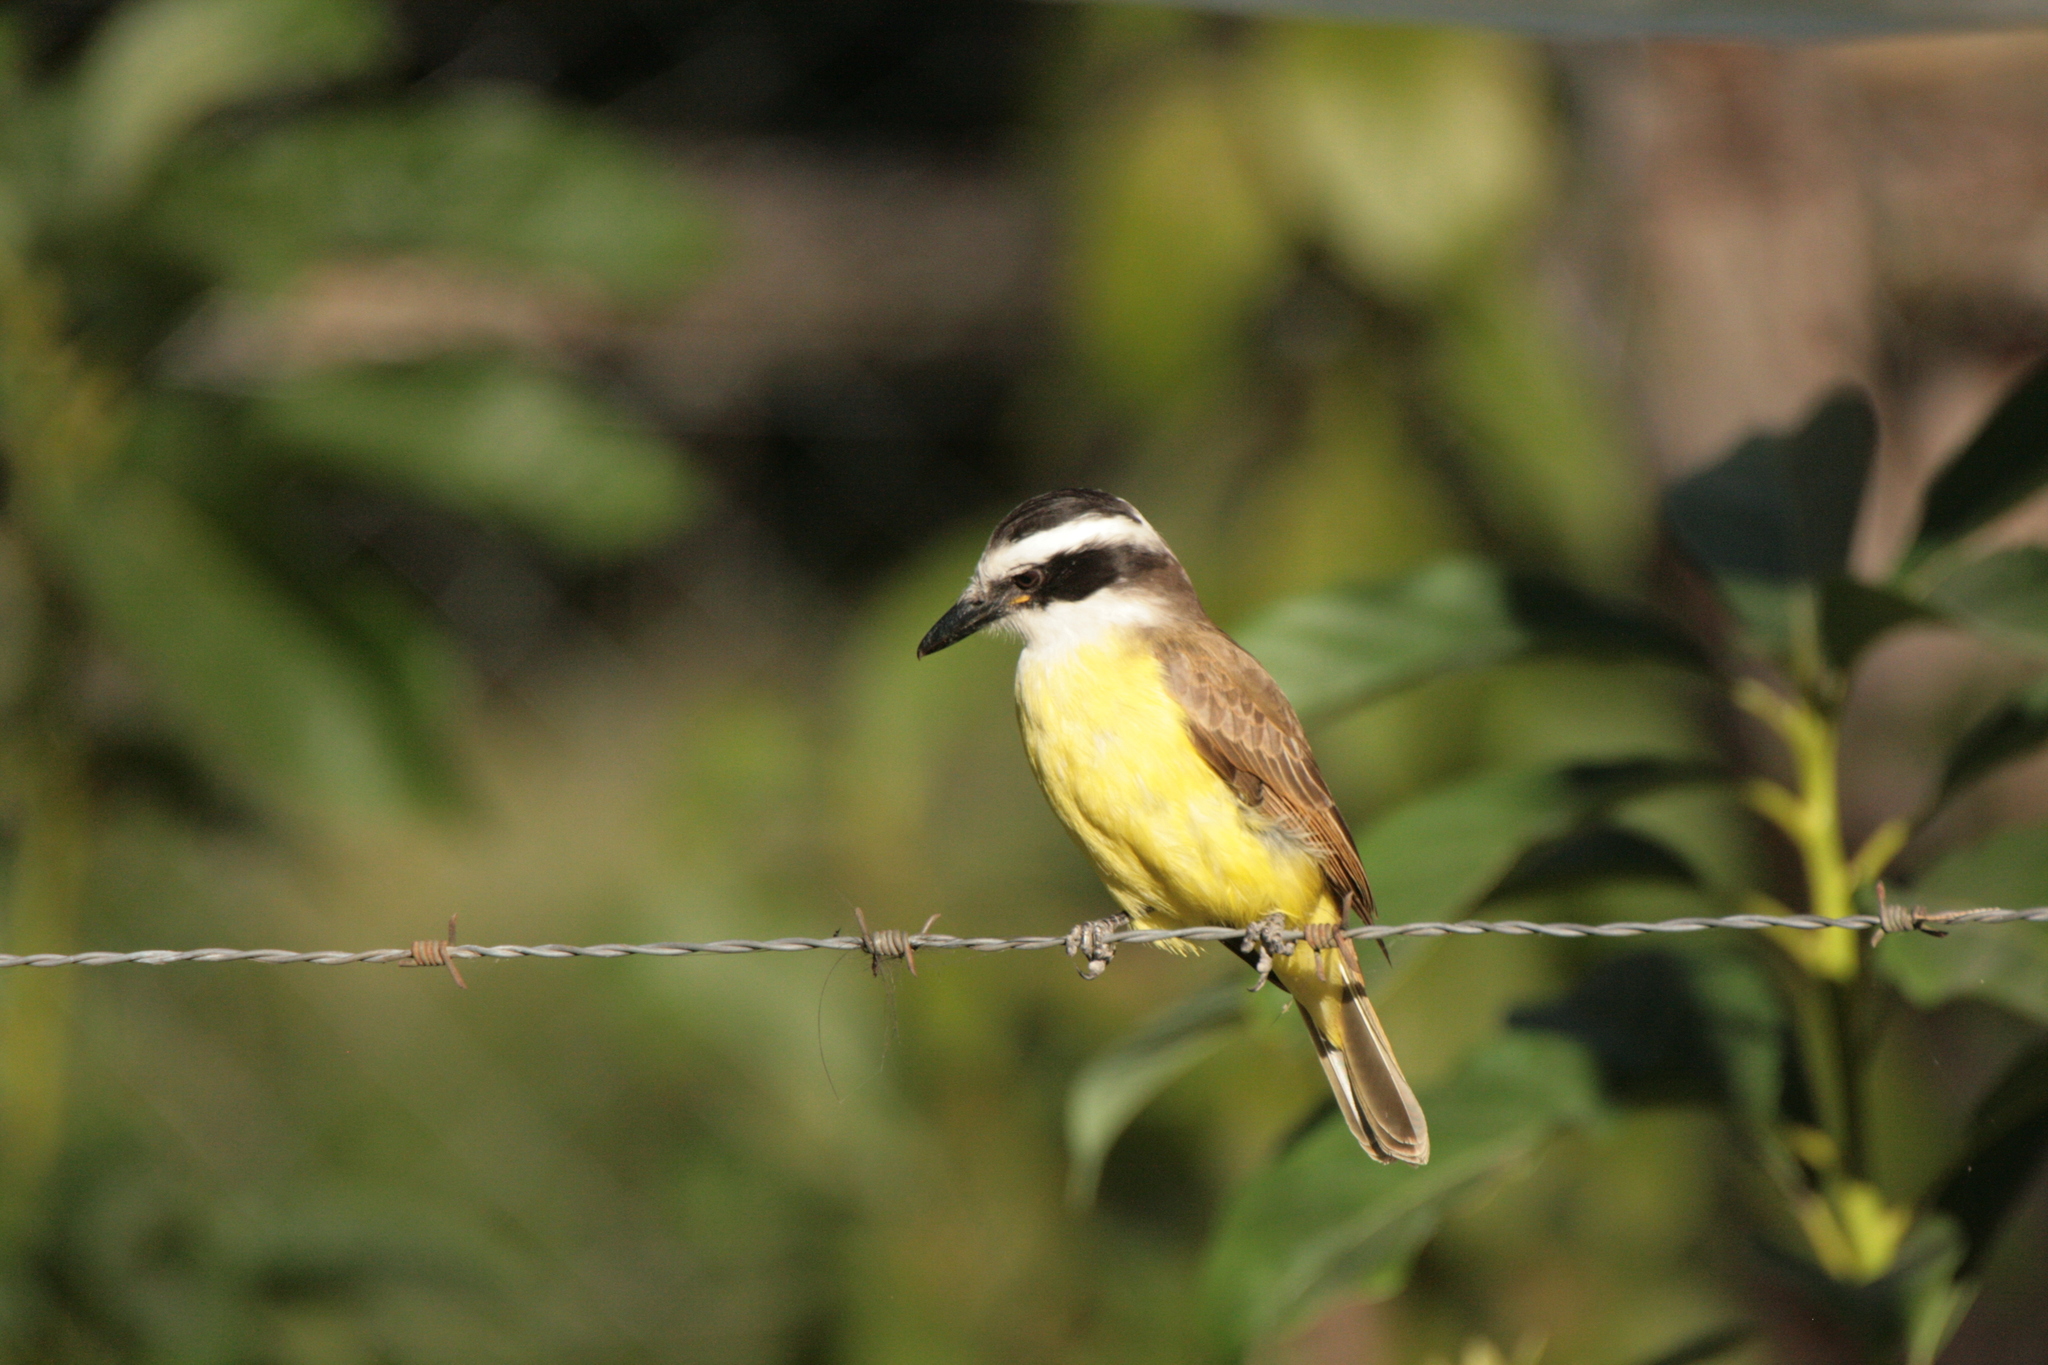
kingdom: Animalia
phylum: Chordata
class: Aves
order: Passeriformes
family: Tyrannidae
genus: Pitangus
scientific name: Pitangus sulphuratus
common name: Great kiskadee
